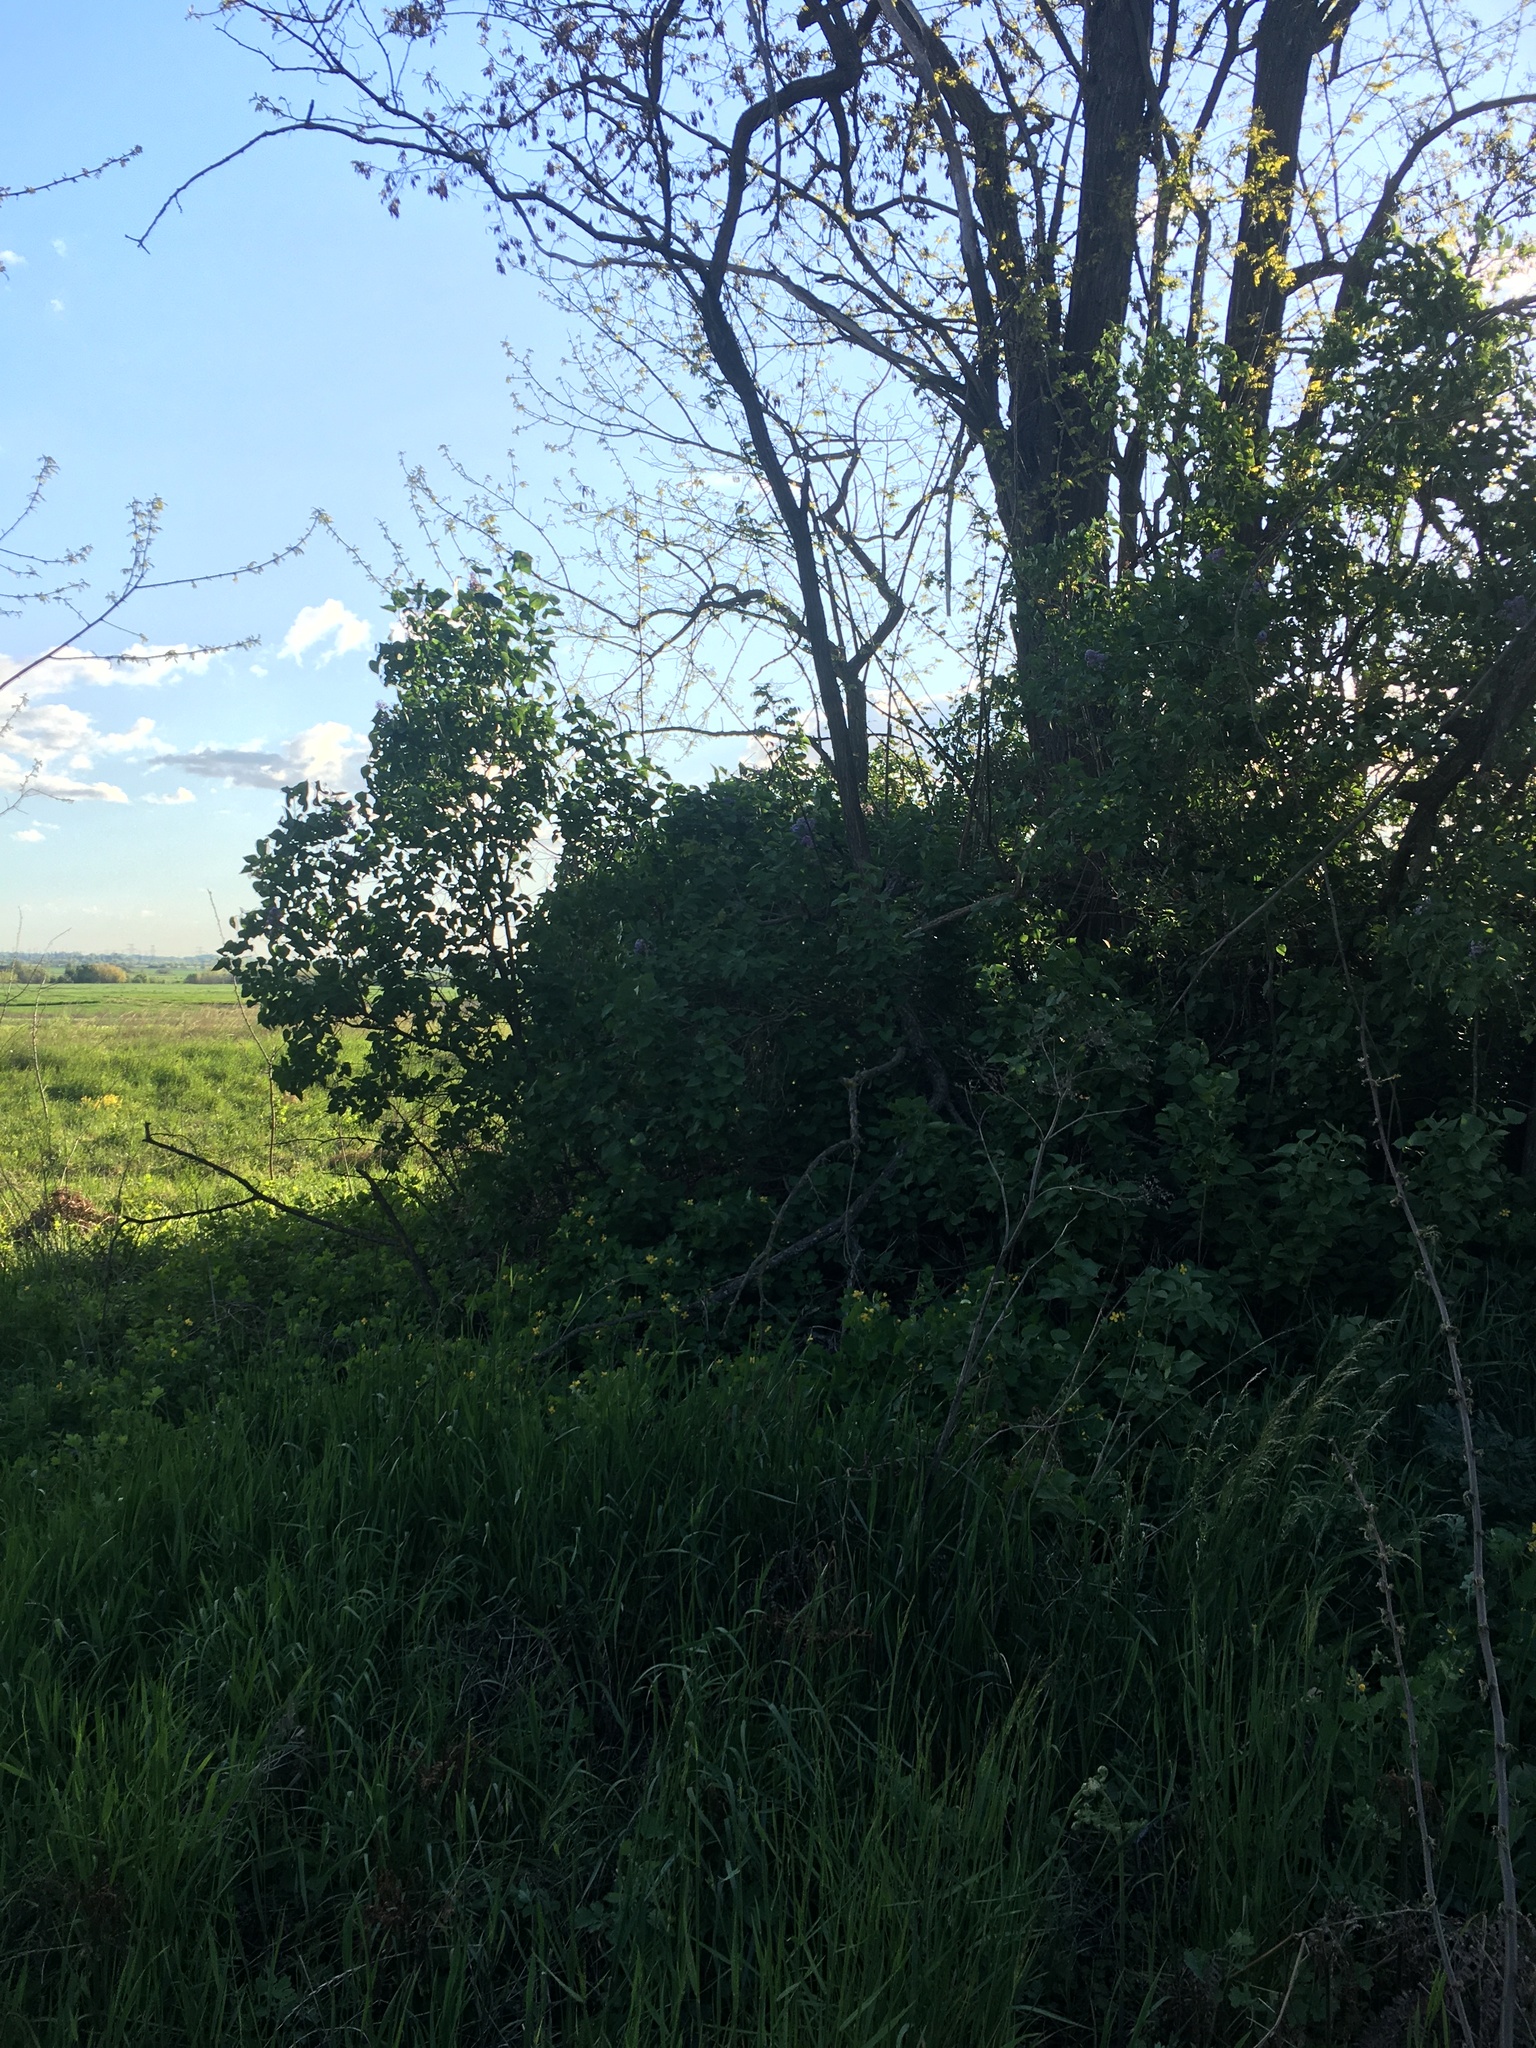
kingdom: Plantae
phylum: Tracheophyta
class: Magnoliopsida
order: Lamiales
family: Oleaceae
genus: Syringa
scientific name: Syringa vulgaris
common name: Common lilac
